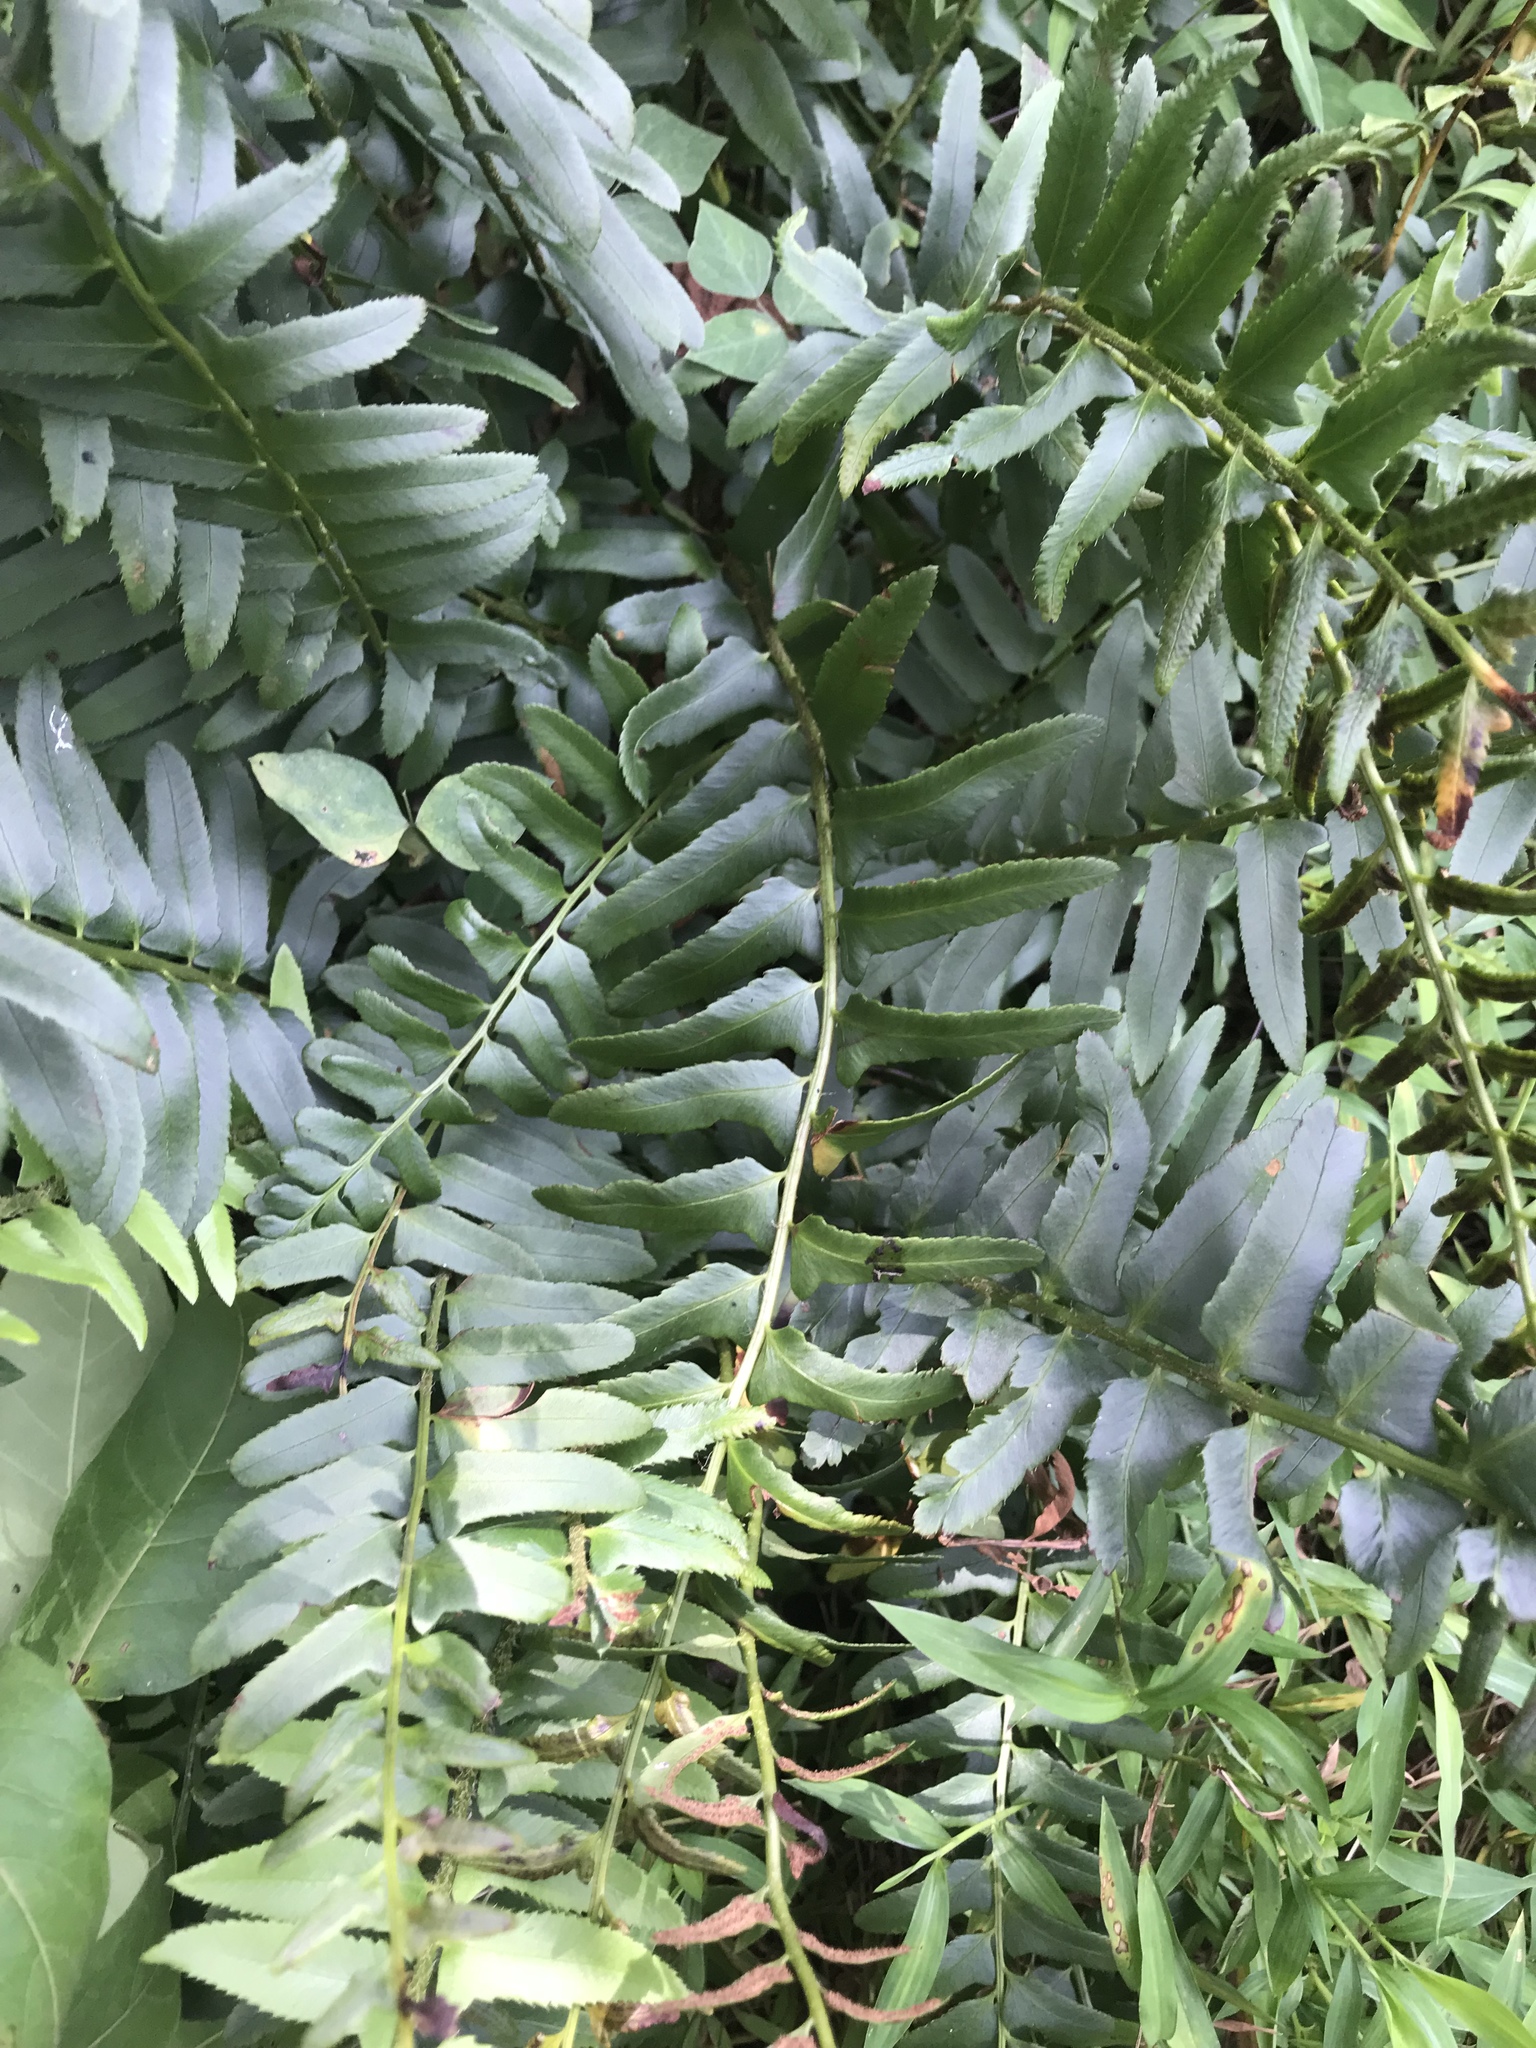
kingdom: Plantae
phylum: Tracheophyta
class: Polypodiopsida
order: Polypodiales
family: Dryopteridaceae
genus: Polystichum
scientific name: Polystichum acrostichoides
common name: Christmas fern
